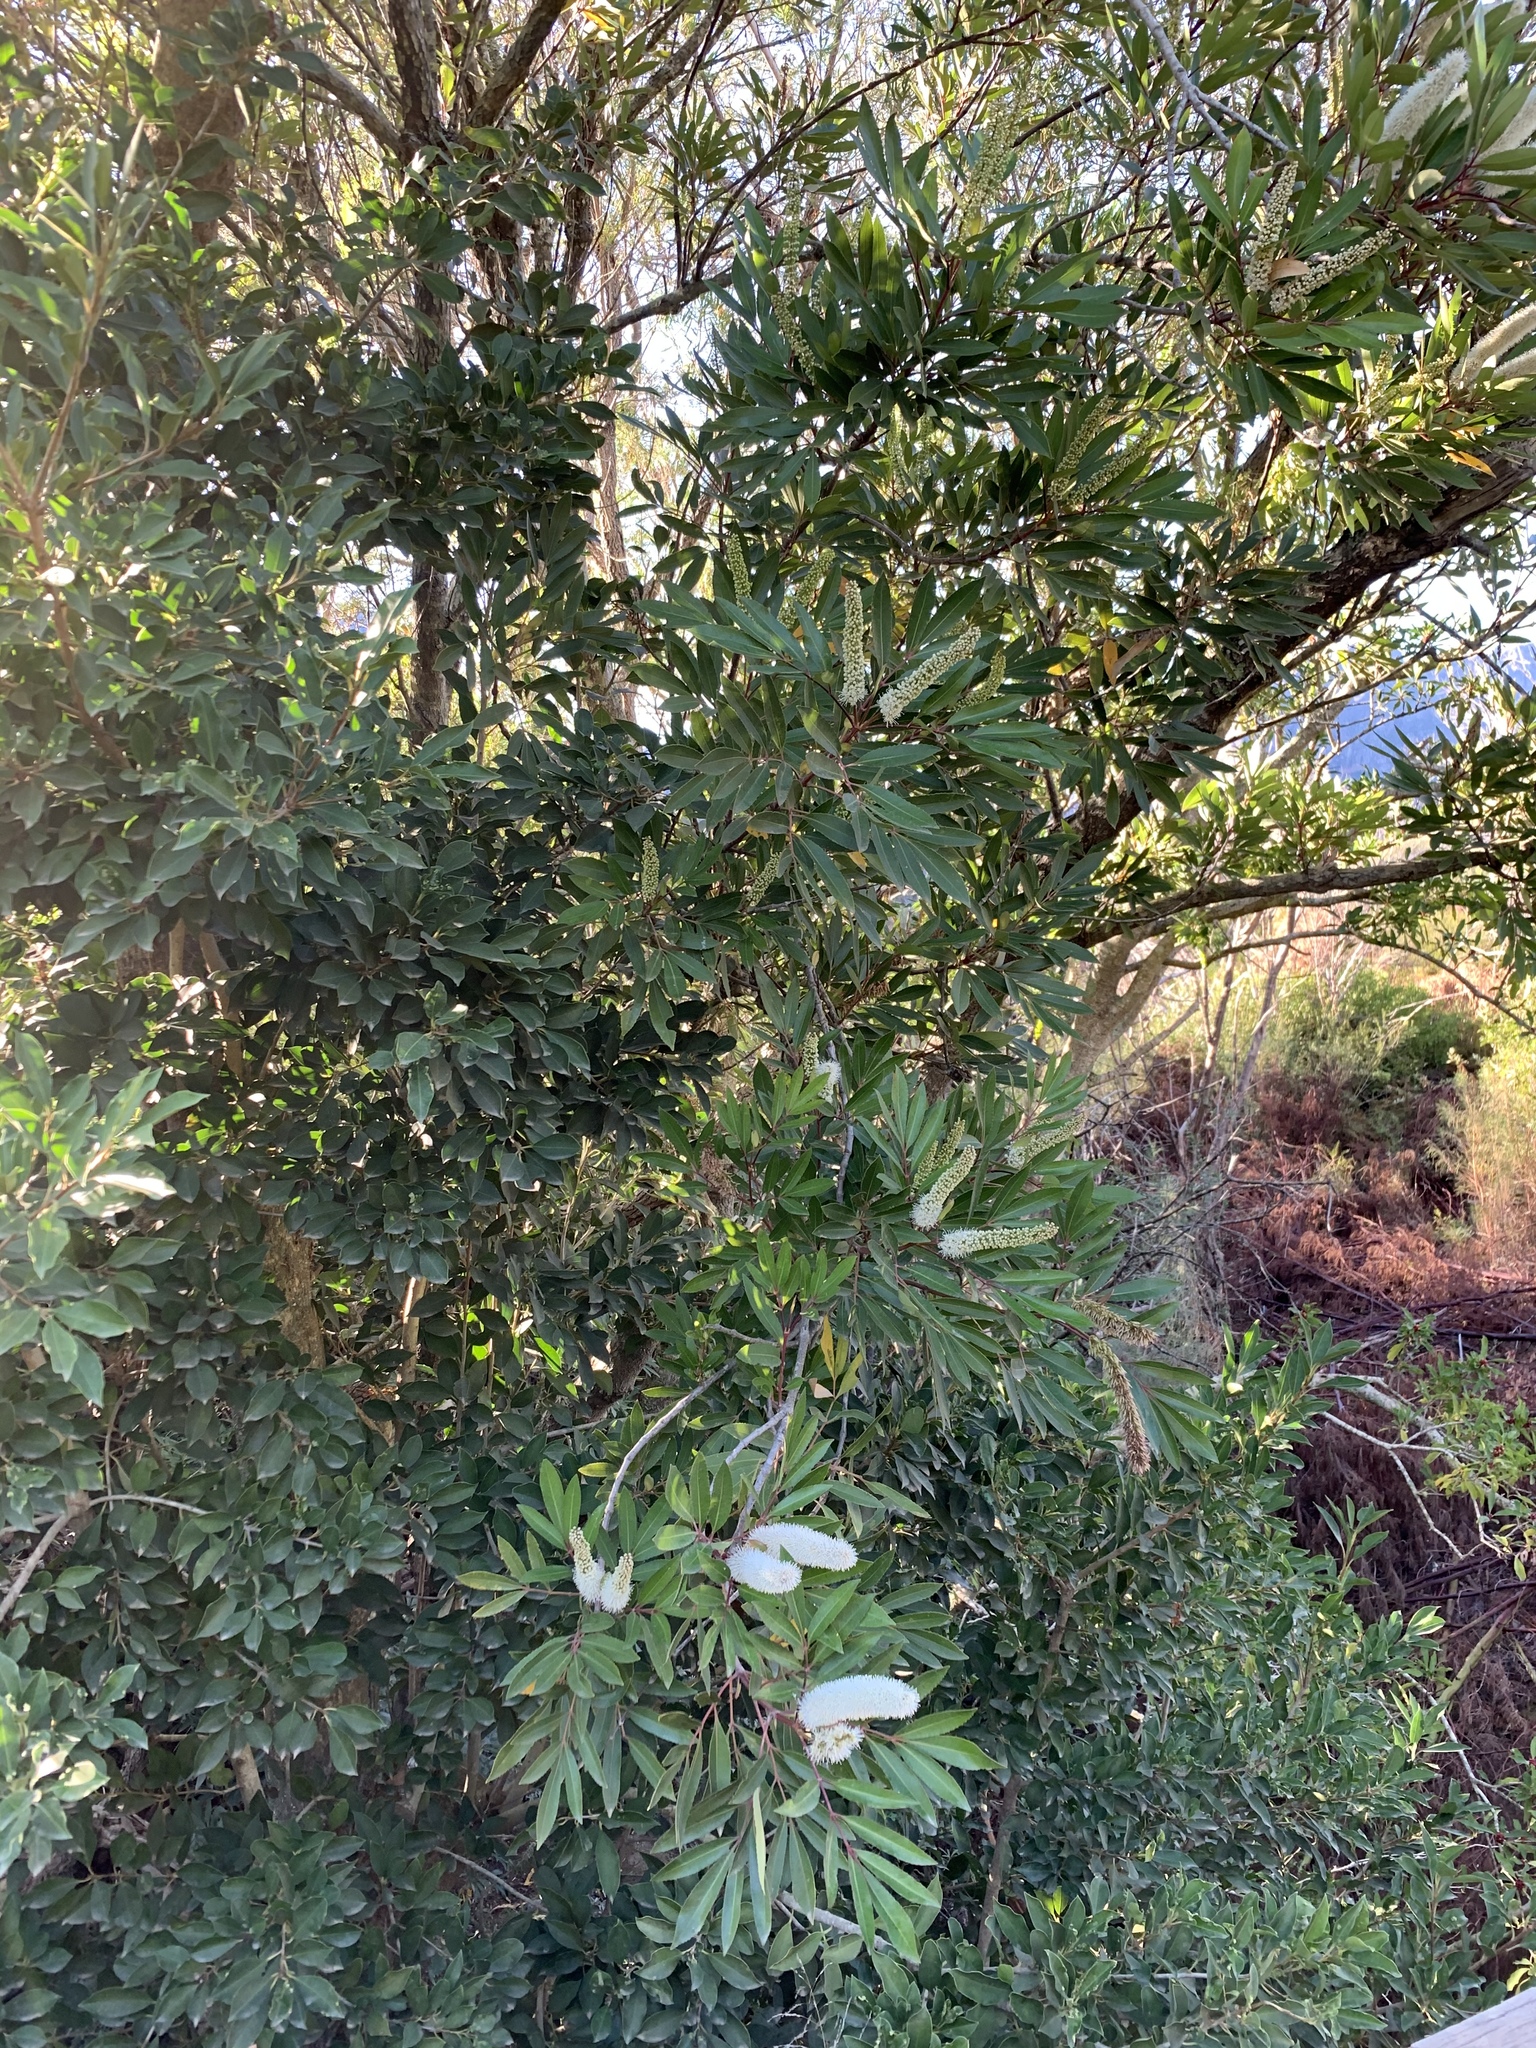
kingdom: Plantae
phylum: Tracheophyta
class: Magnoliopsida
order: Oxalidales
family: Cunoniaceae
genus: Cunonia
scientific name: Cunonia capensis
